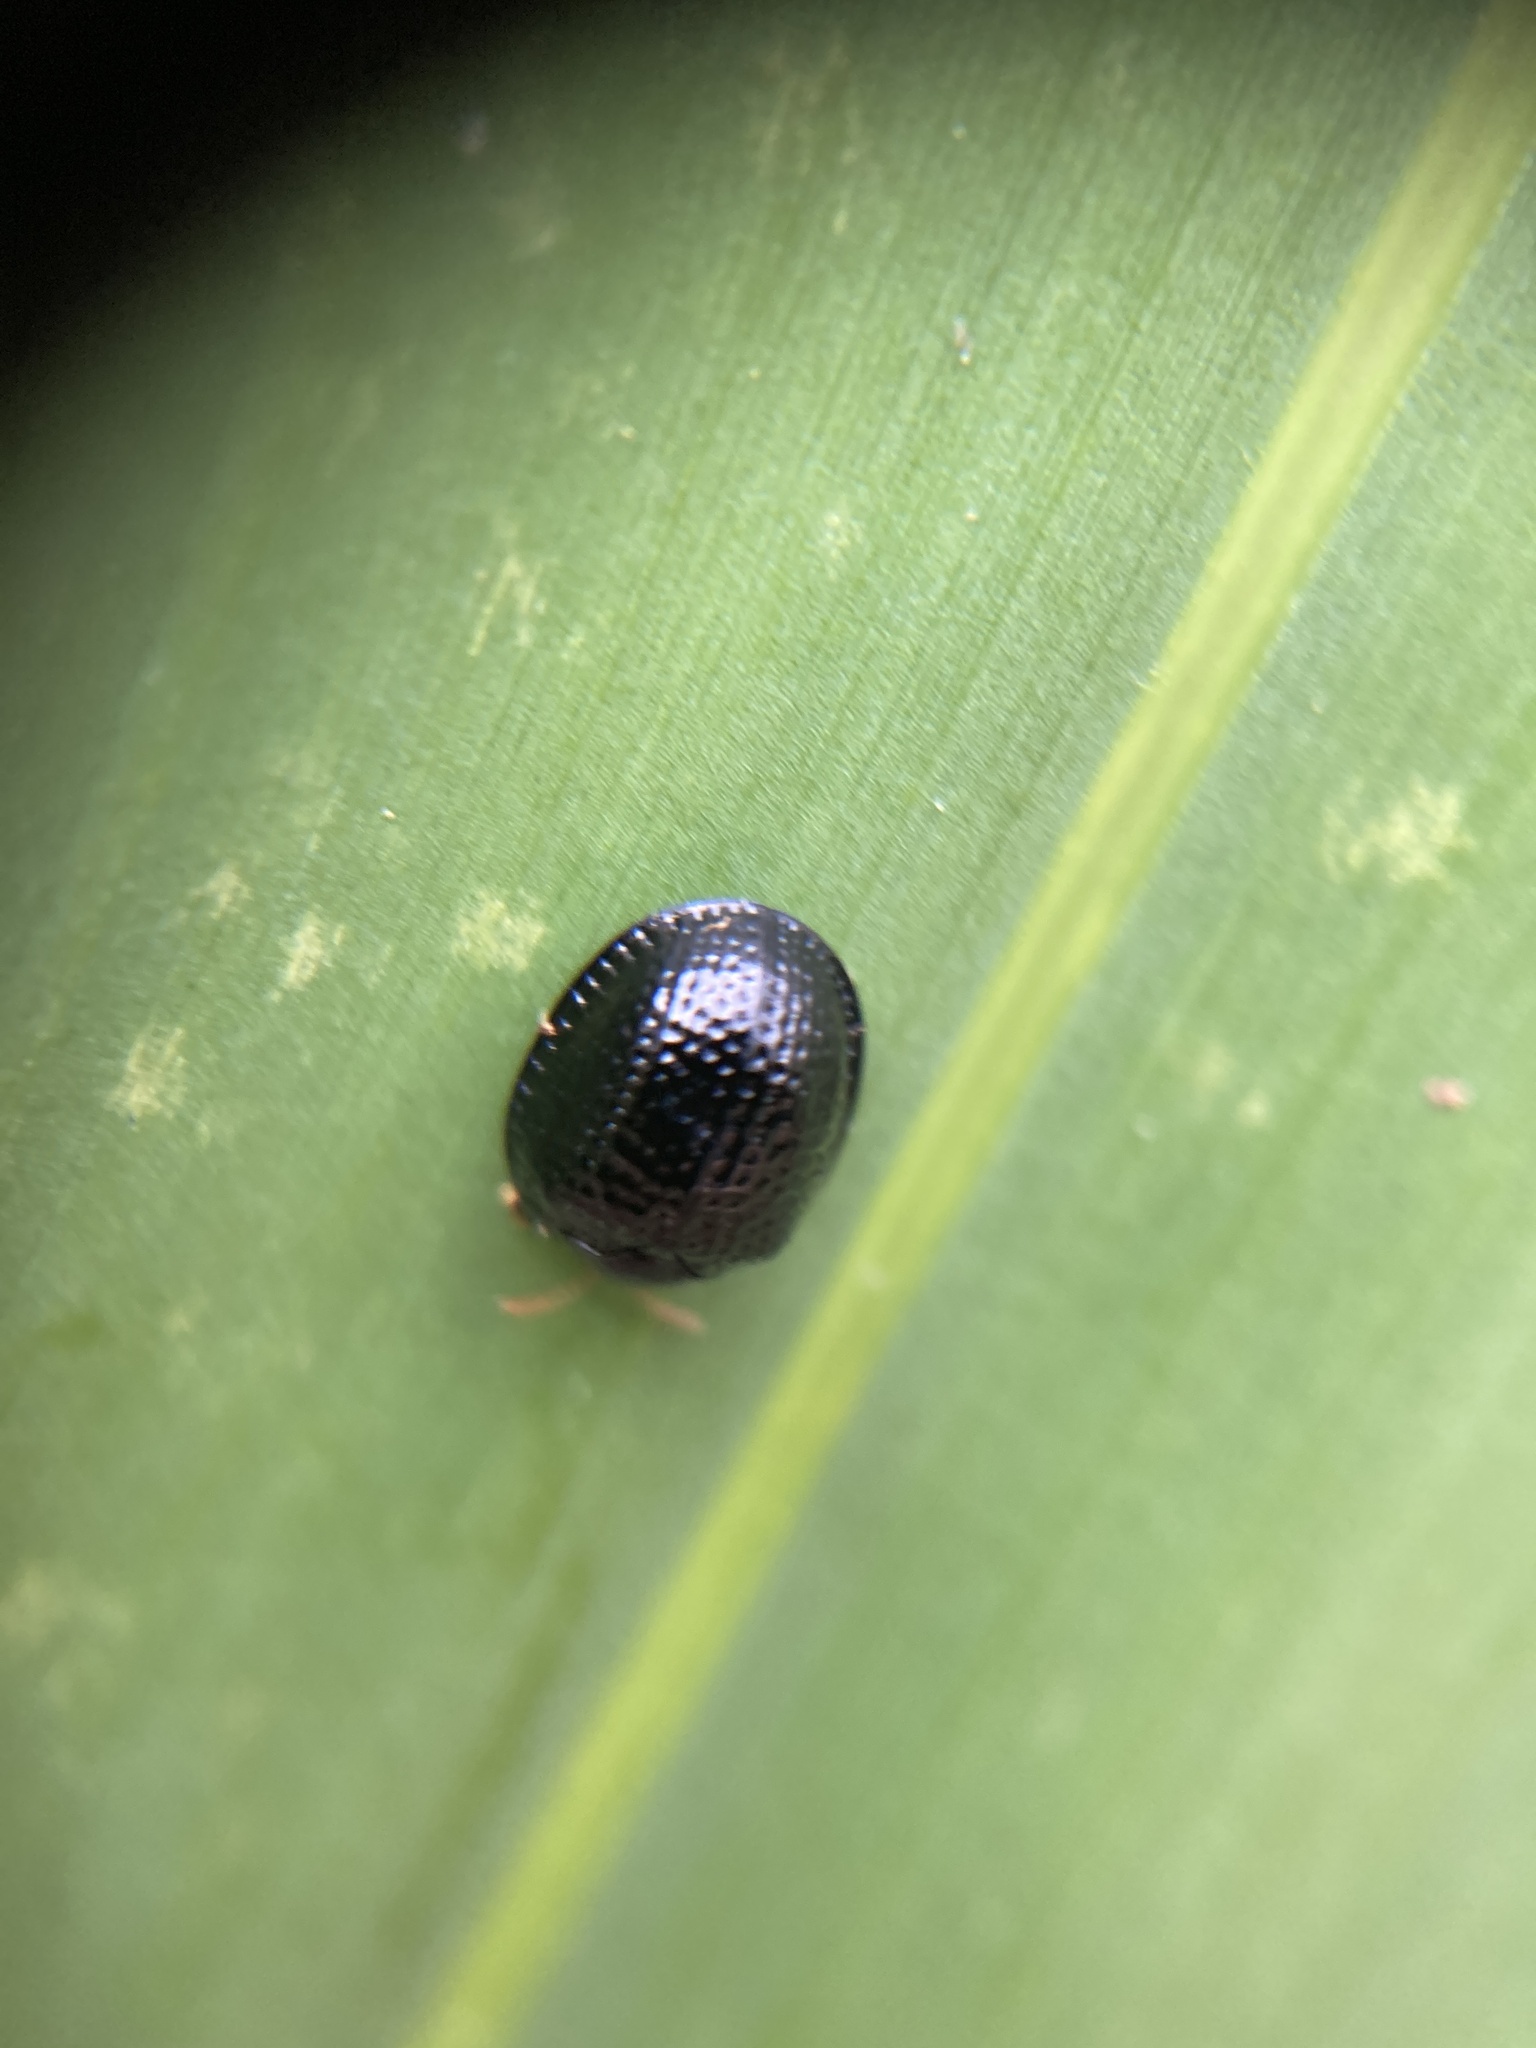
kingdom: Animalia
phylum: Arthropoda
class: Insecta
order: Coleoptera
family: Chrysomelidae
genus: Hemisphaerota
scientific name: Hemisphaerota cyanea
